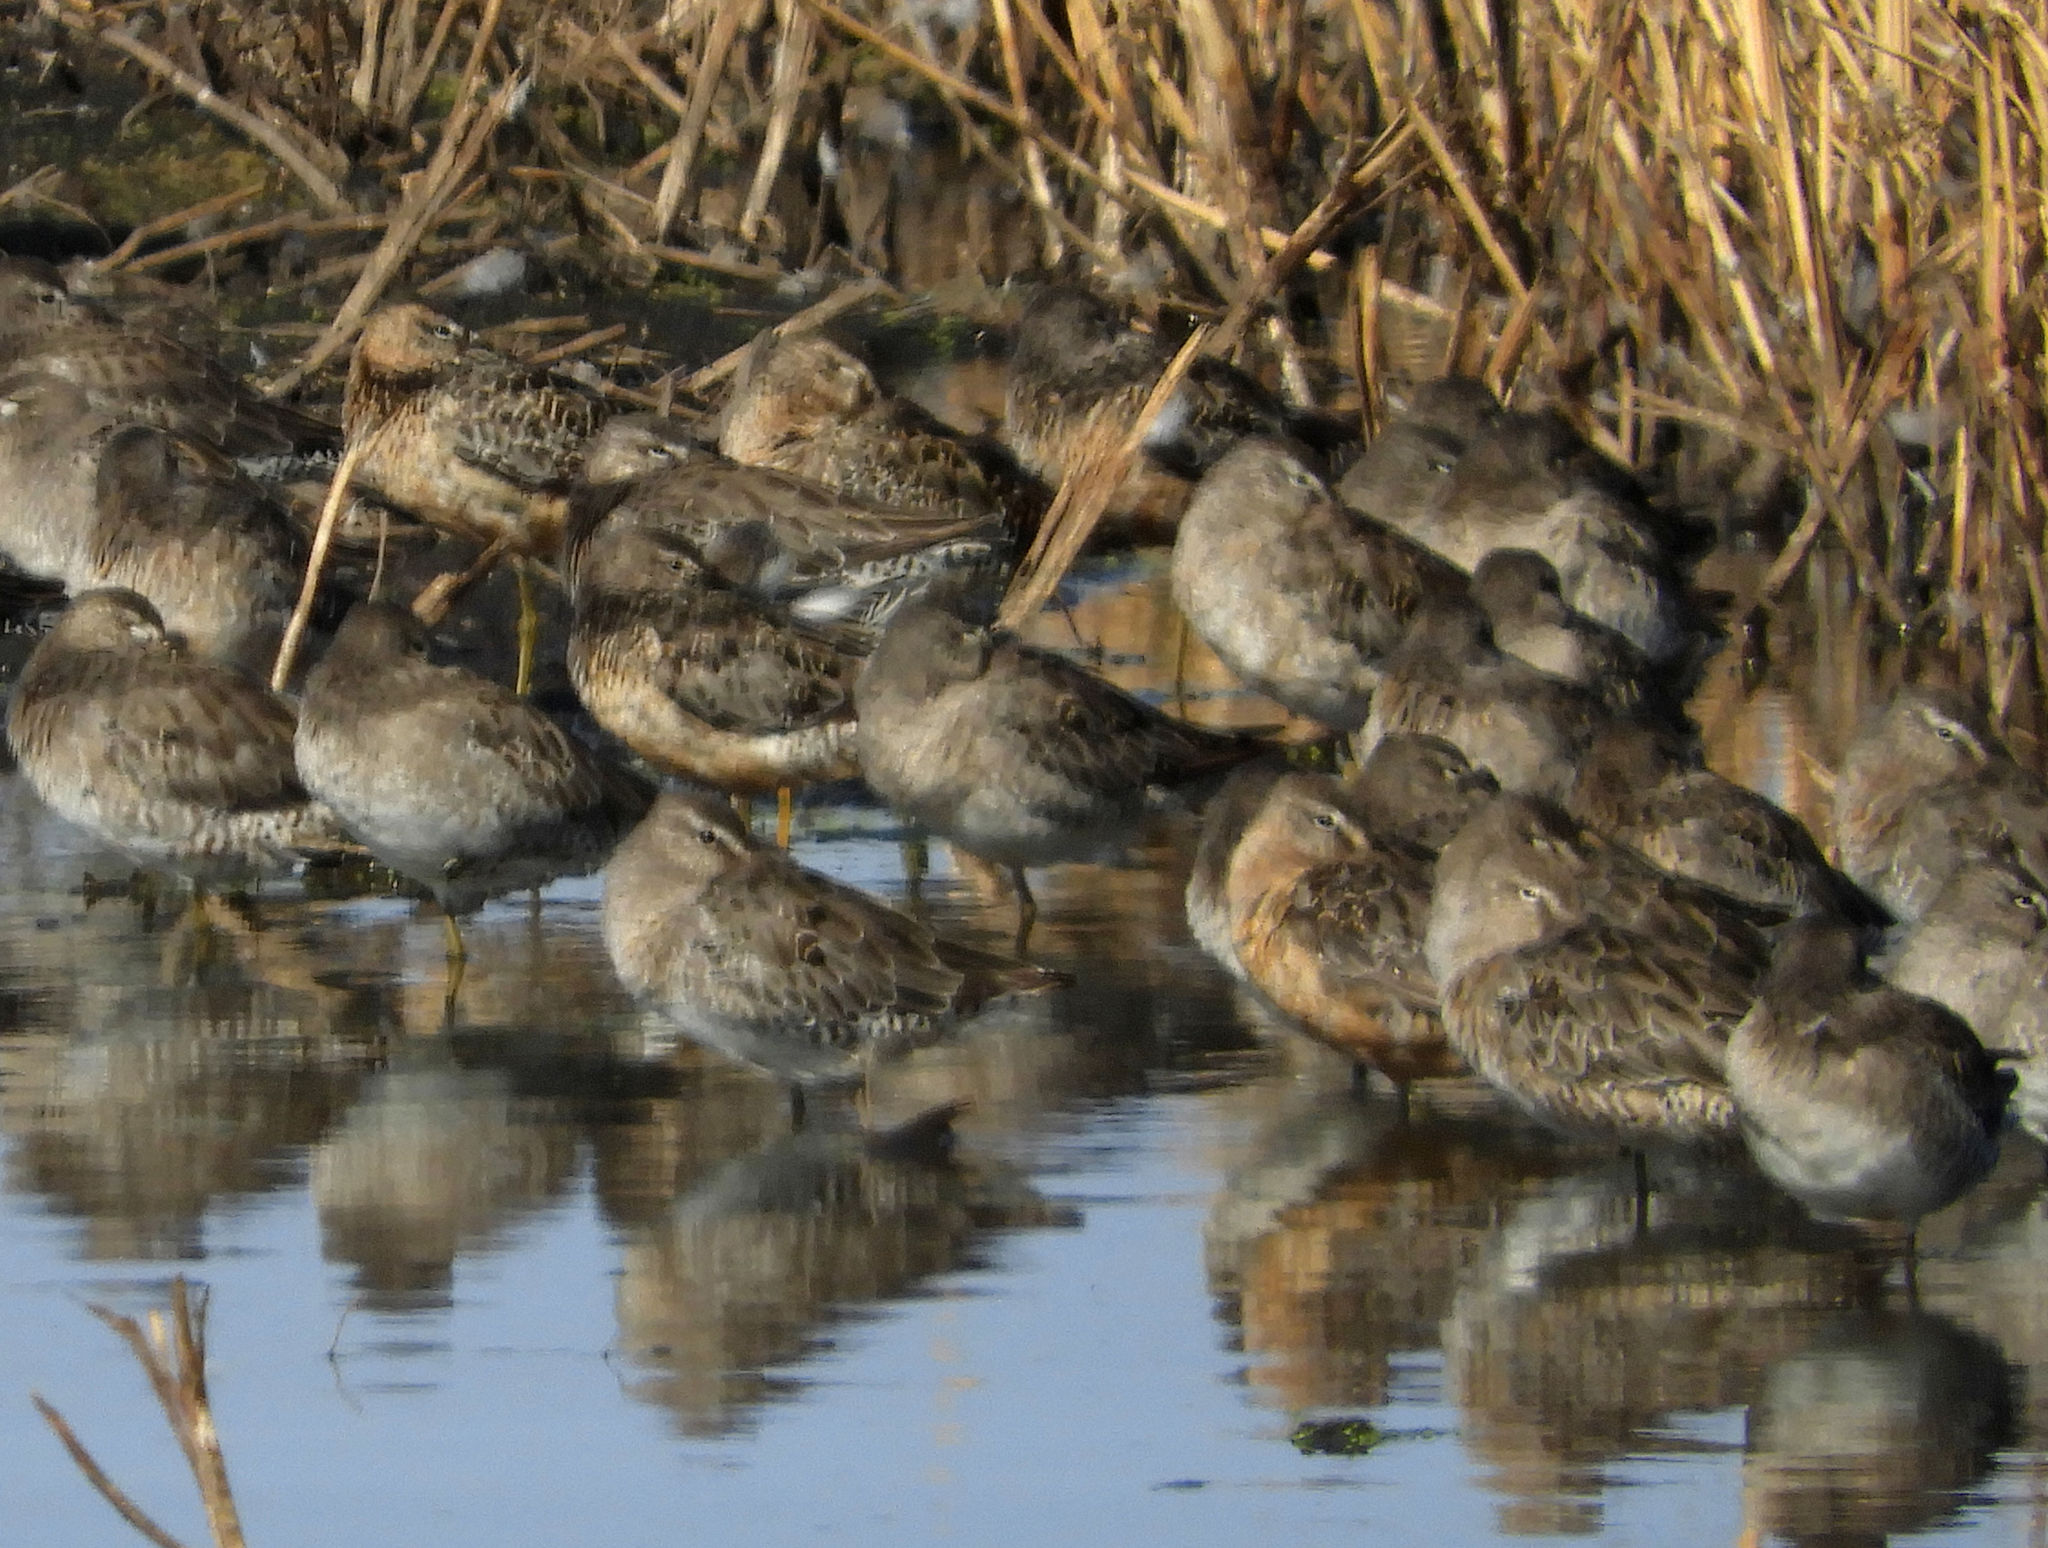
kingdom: Animalia
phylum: Chordata
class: Aves
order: Charadriiformes
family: Scolopacidae
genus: Limnodromus
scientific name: Limnodromus scolopaceus
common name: Long-billed dowitcher
